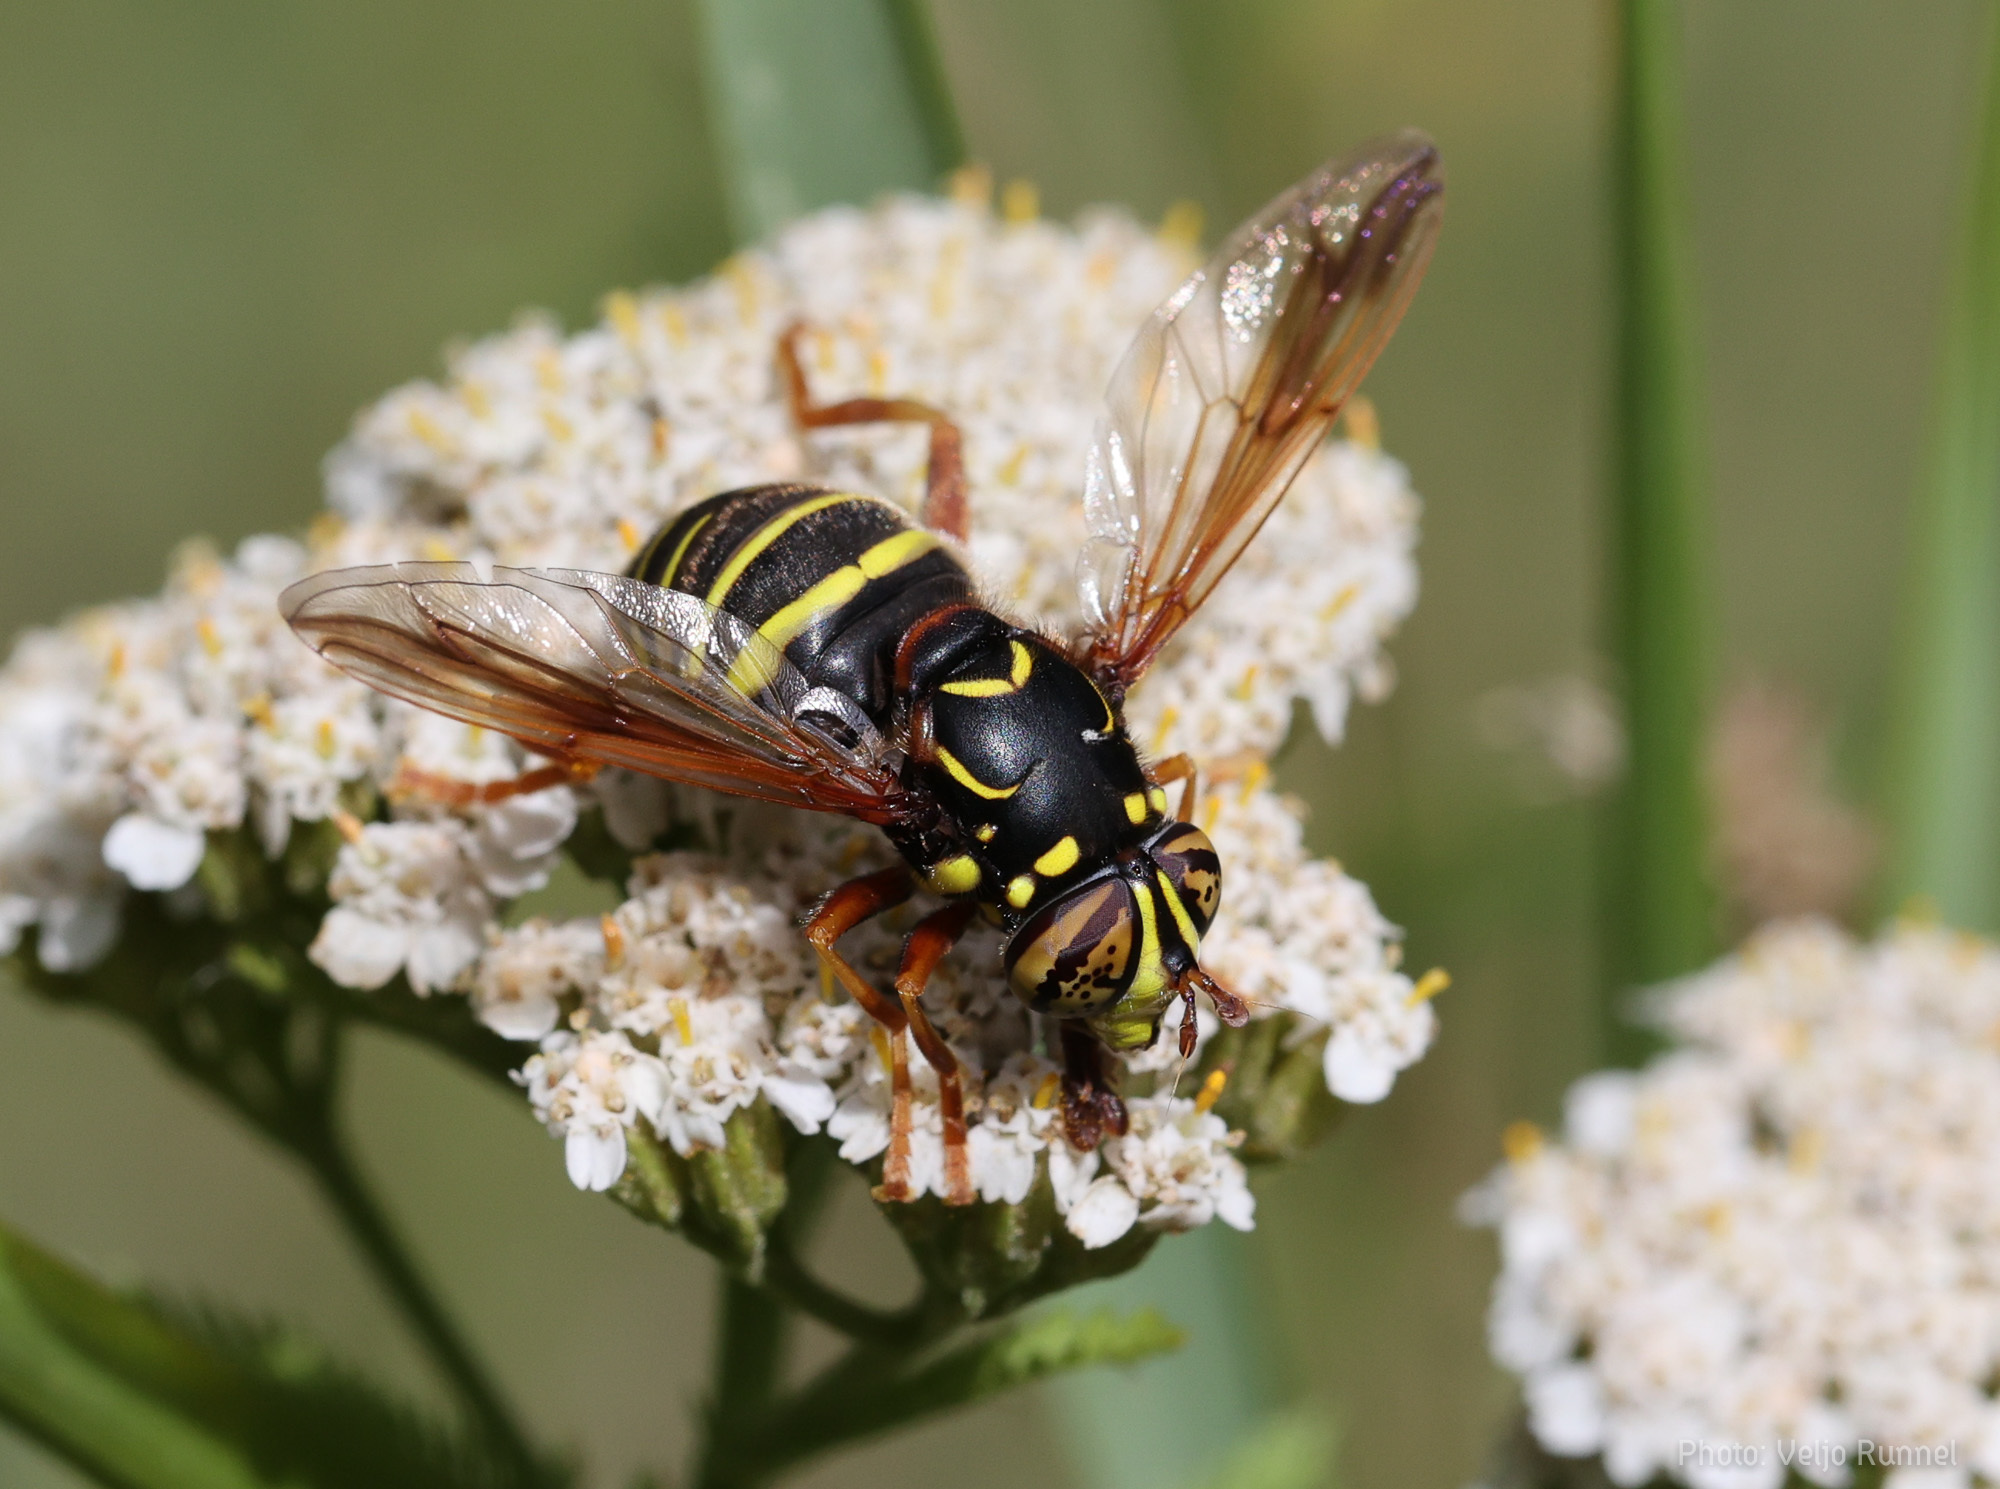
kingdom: Animalia
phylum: Arthropoda
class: Insecta
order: Diptera
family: Syrphidae
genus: Spilomyia
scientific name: Spilomyia diophthalma
